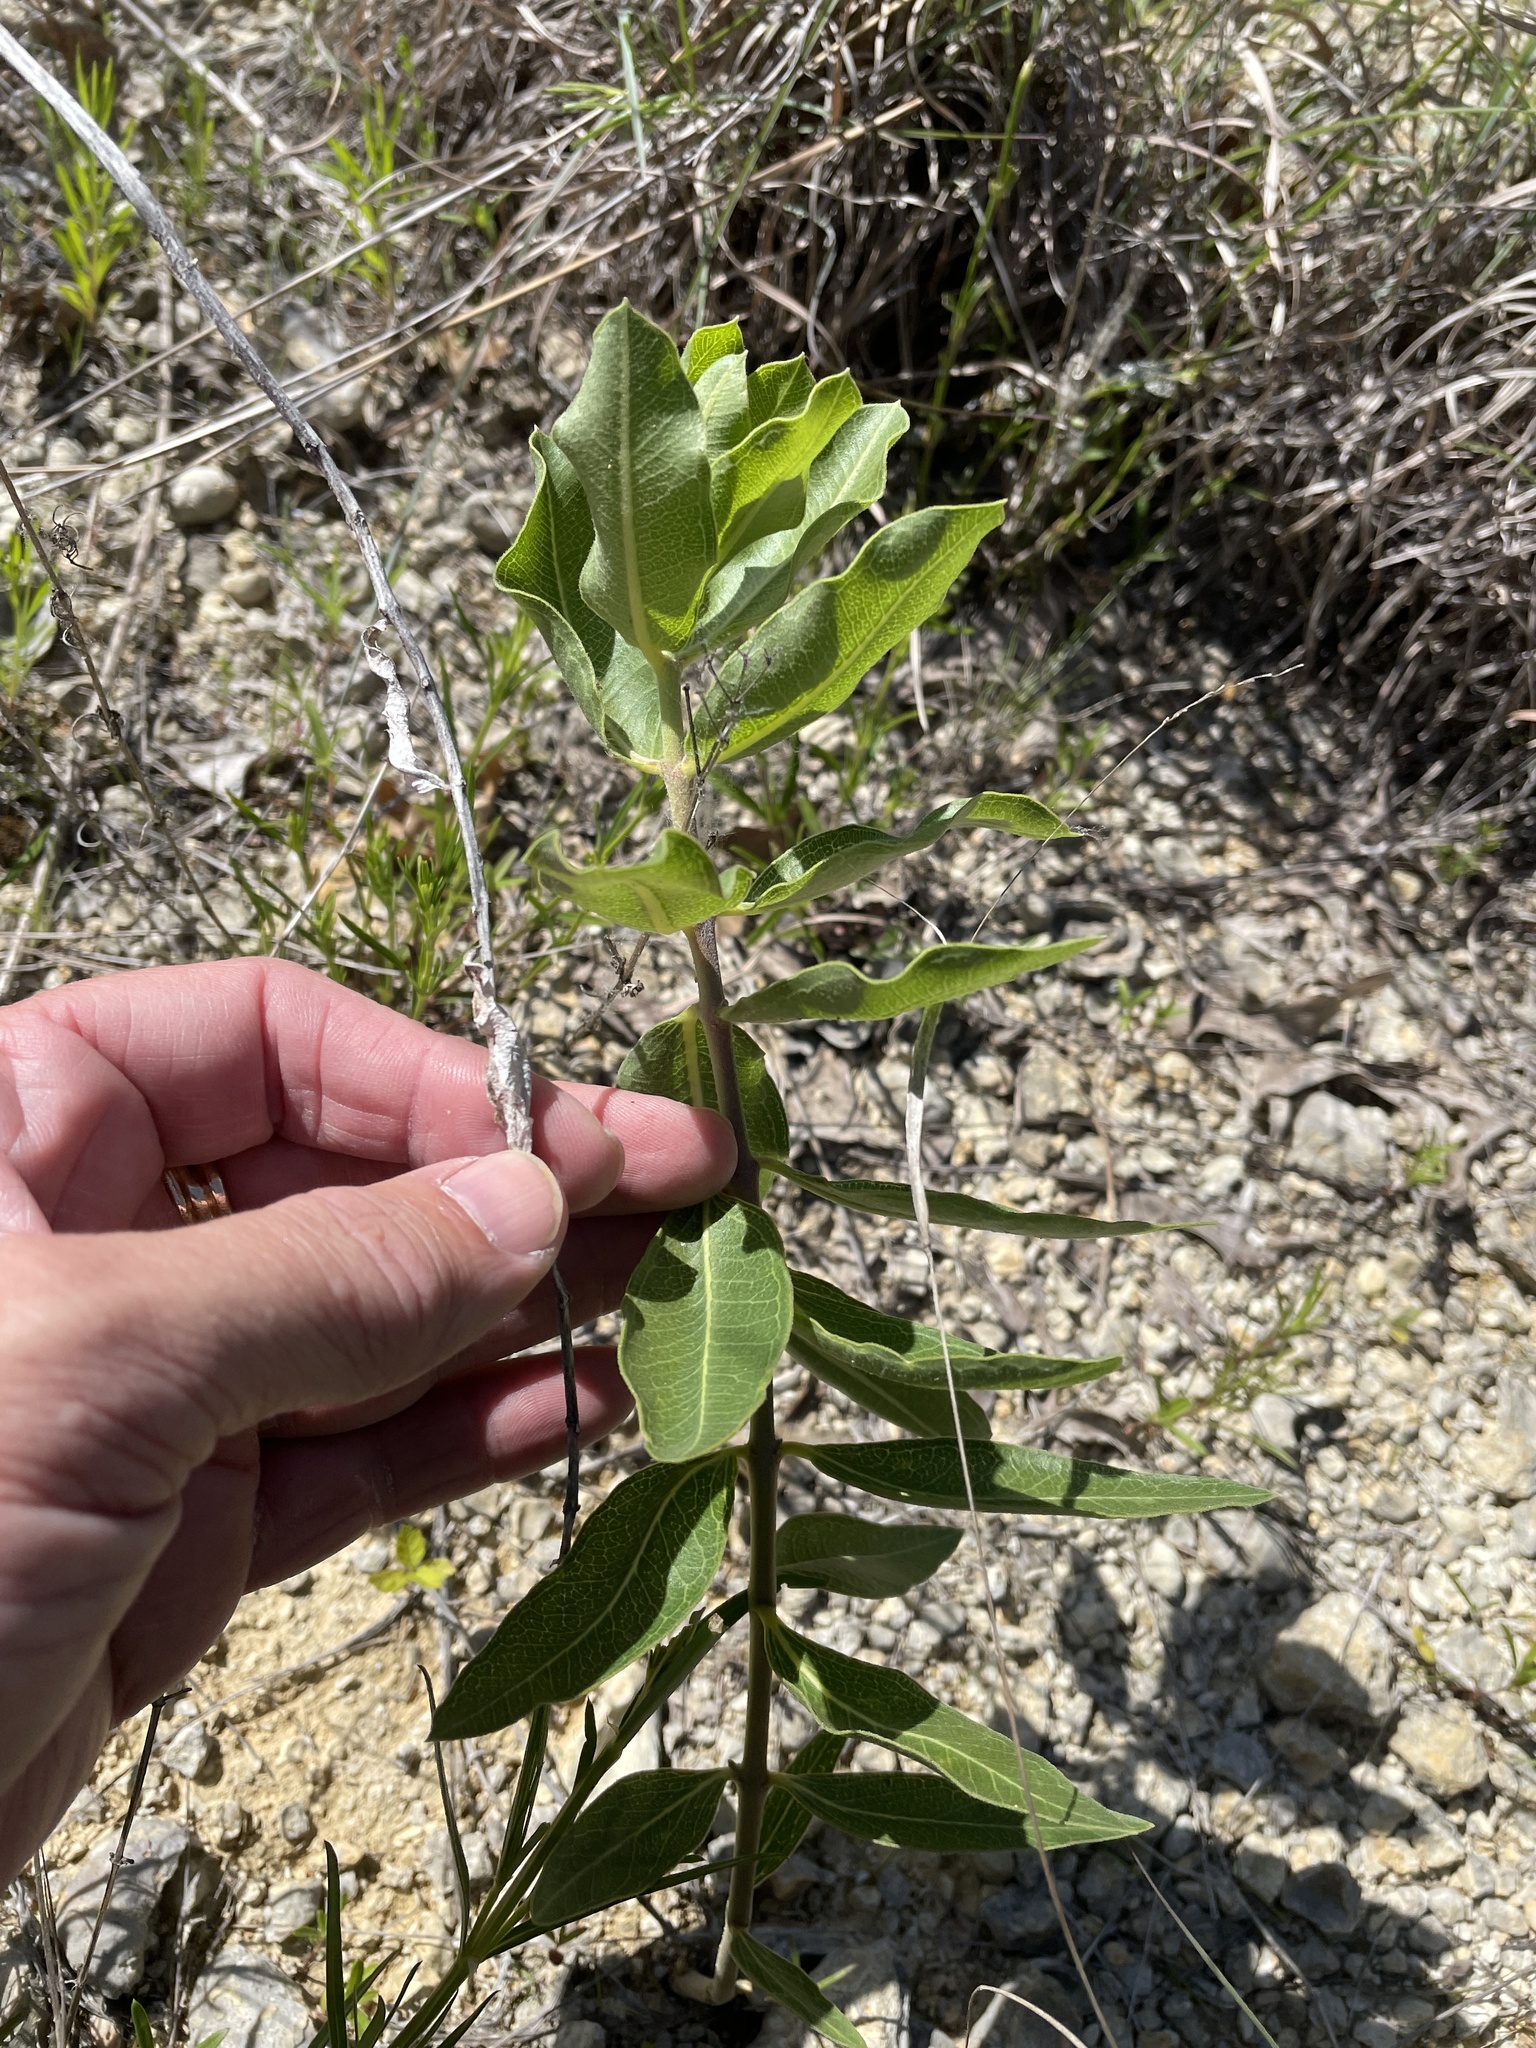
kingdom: Plantae
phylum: Tracheophyta
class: Magnoliopsida
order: Gentianales
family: Apocynaceae
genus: Asclepias
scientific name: Asclepias viridiflora
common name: Green comet milkweed
